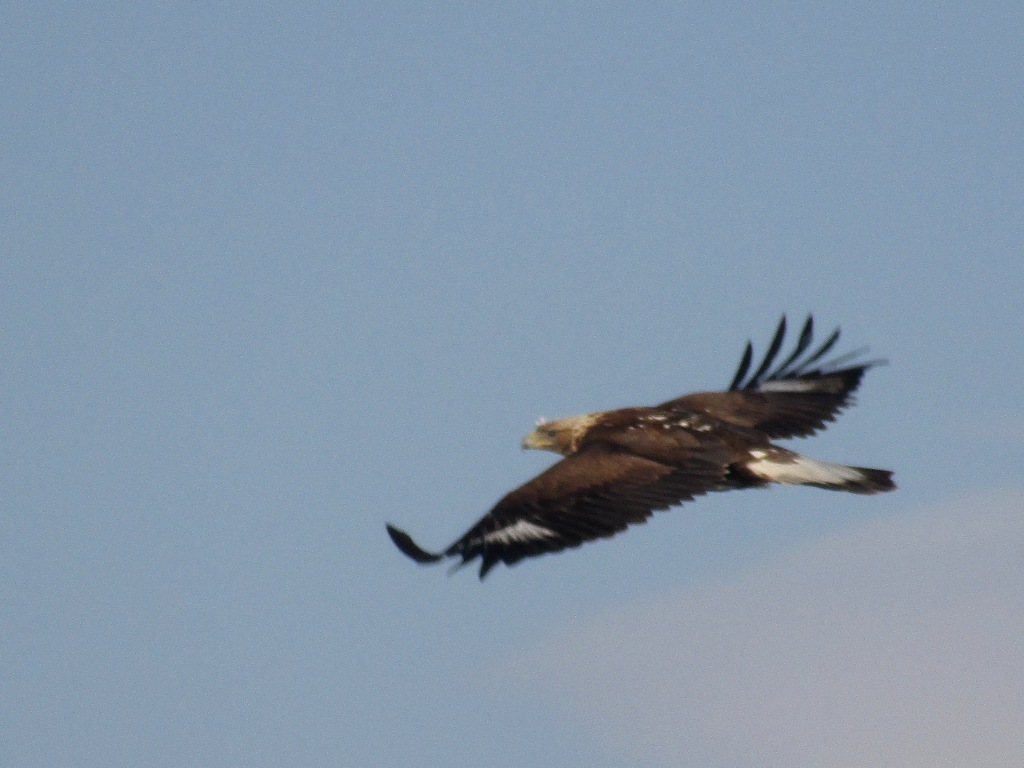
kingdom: Animalia
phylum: Chordata
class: Aves
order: Accipitriformes
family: Accipitridae
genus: Aquila
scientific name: Aquila chrysaetos
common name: Golden eagle
